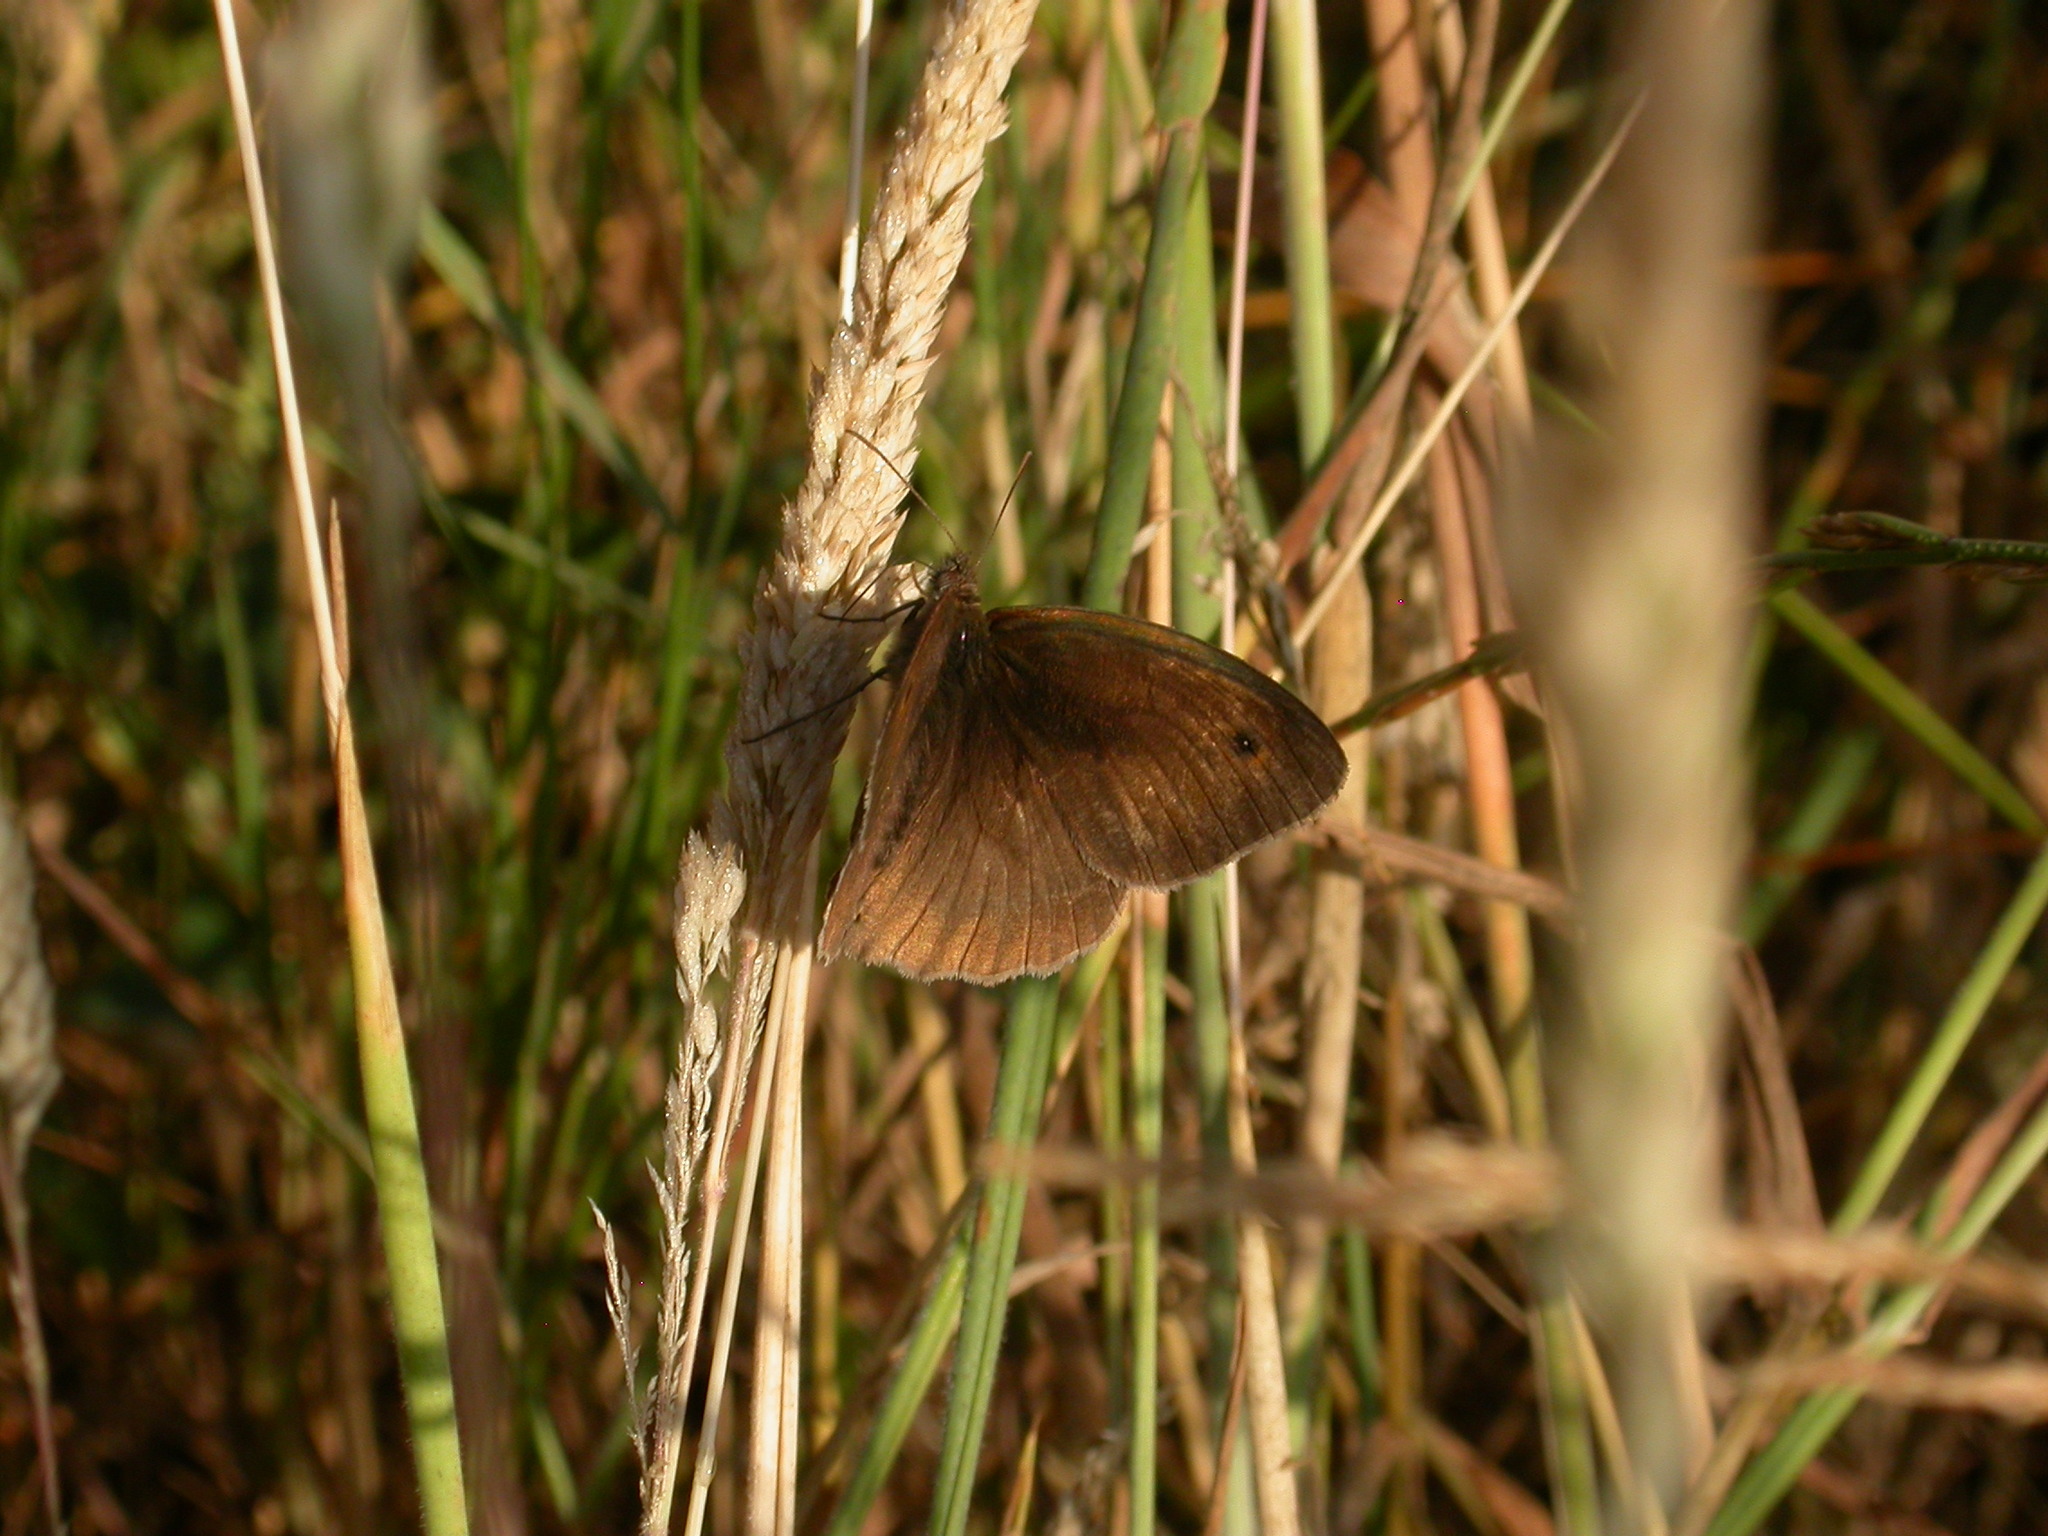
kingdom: Animalia
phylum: Arthropoda
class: Insecta
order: Lepidoptera
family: Nymphalidae
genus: Maniola
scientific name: Maniola jurtina
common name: Meadow brown
